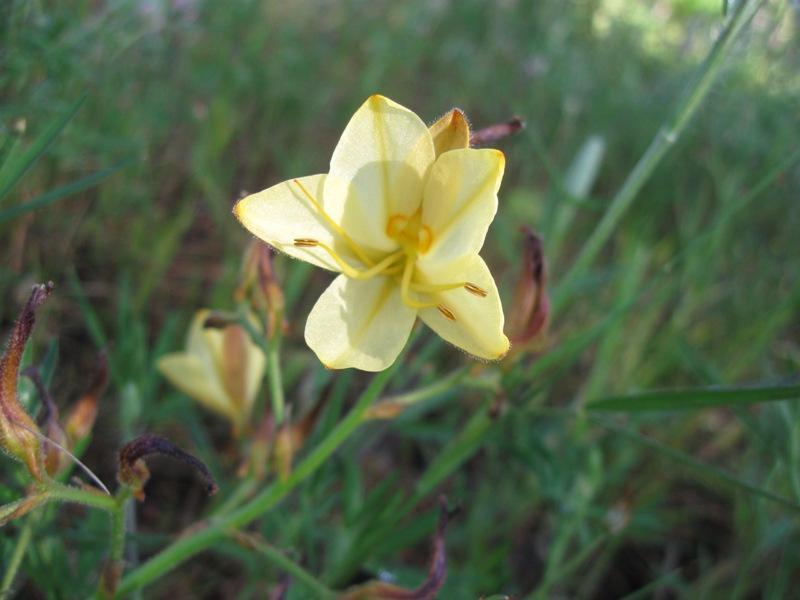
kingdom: Plantae
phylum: Tracheophyta
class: Liliopsida
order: Commelinales
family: Haemodoraceae
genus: Wachendorfia
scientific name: Wachendorfia paniculata
